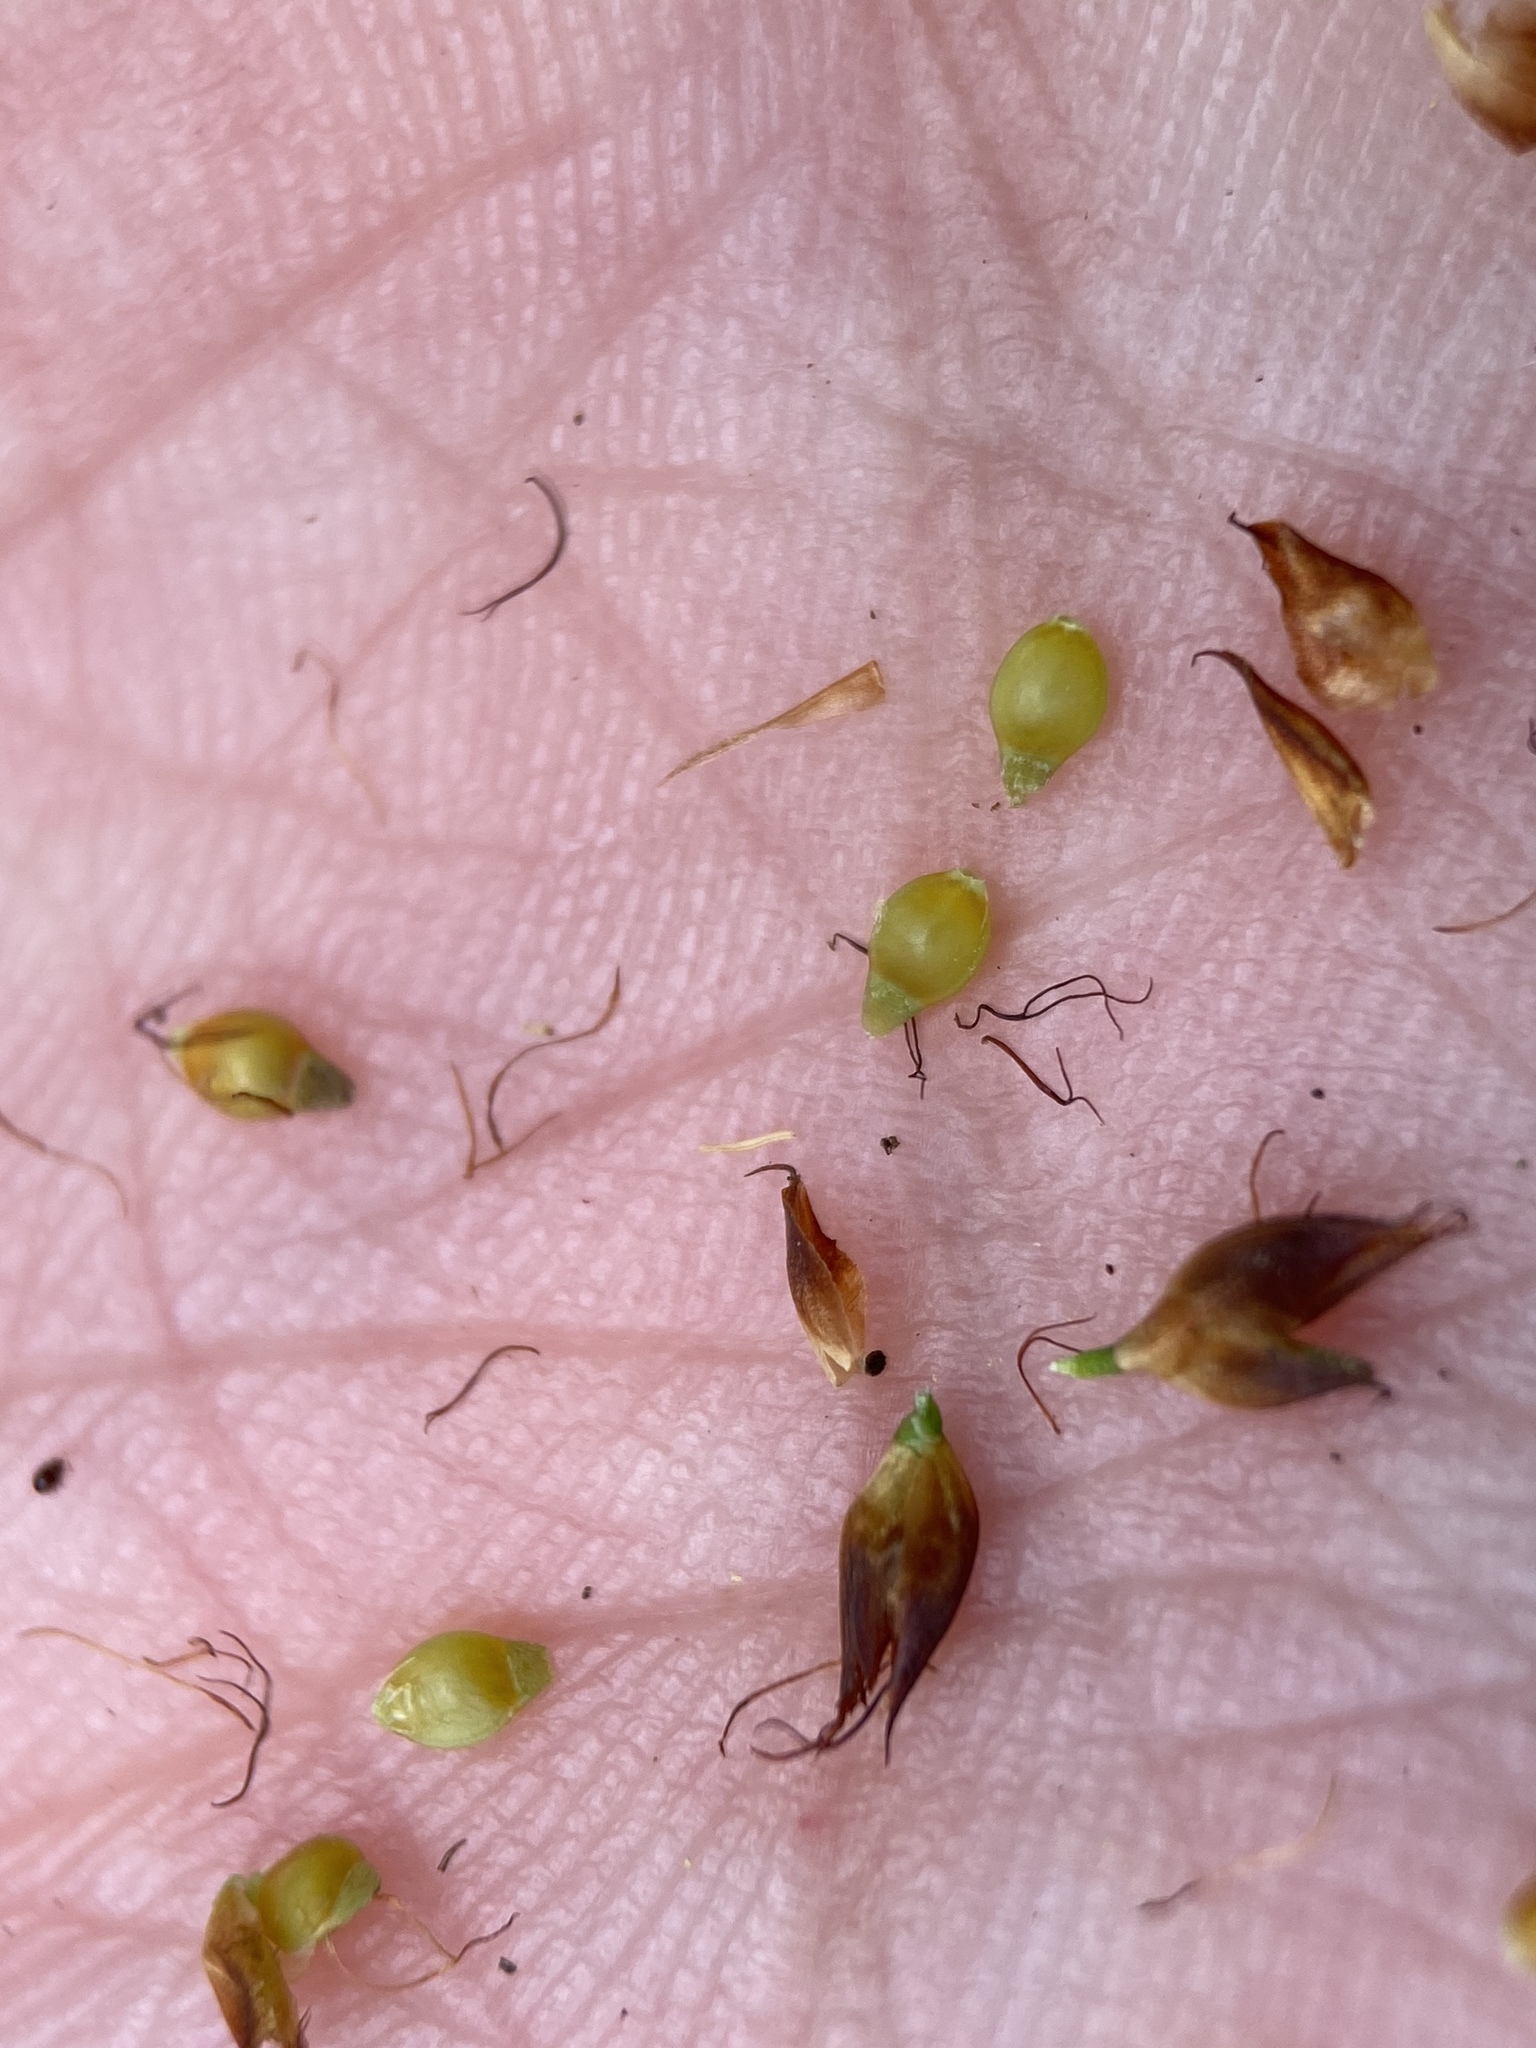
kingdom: Plantae
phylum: Tracheophyta
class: Liliopsida
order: Poales
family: Cyperaceae
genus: Rhynchospora
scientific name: Rhynchospora fascicularis
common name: Fascicled beak sedge
